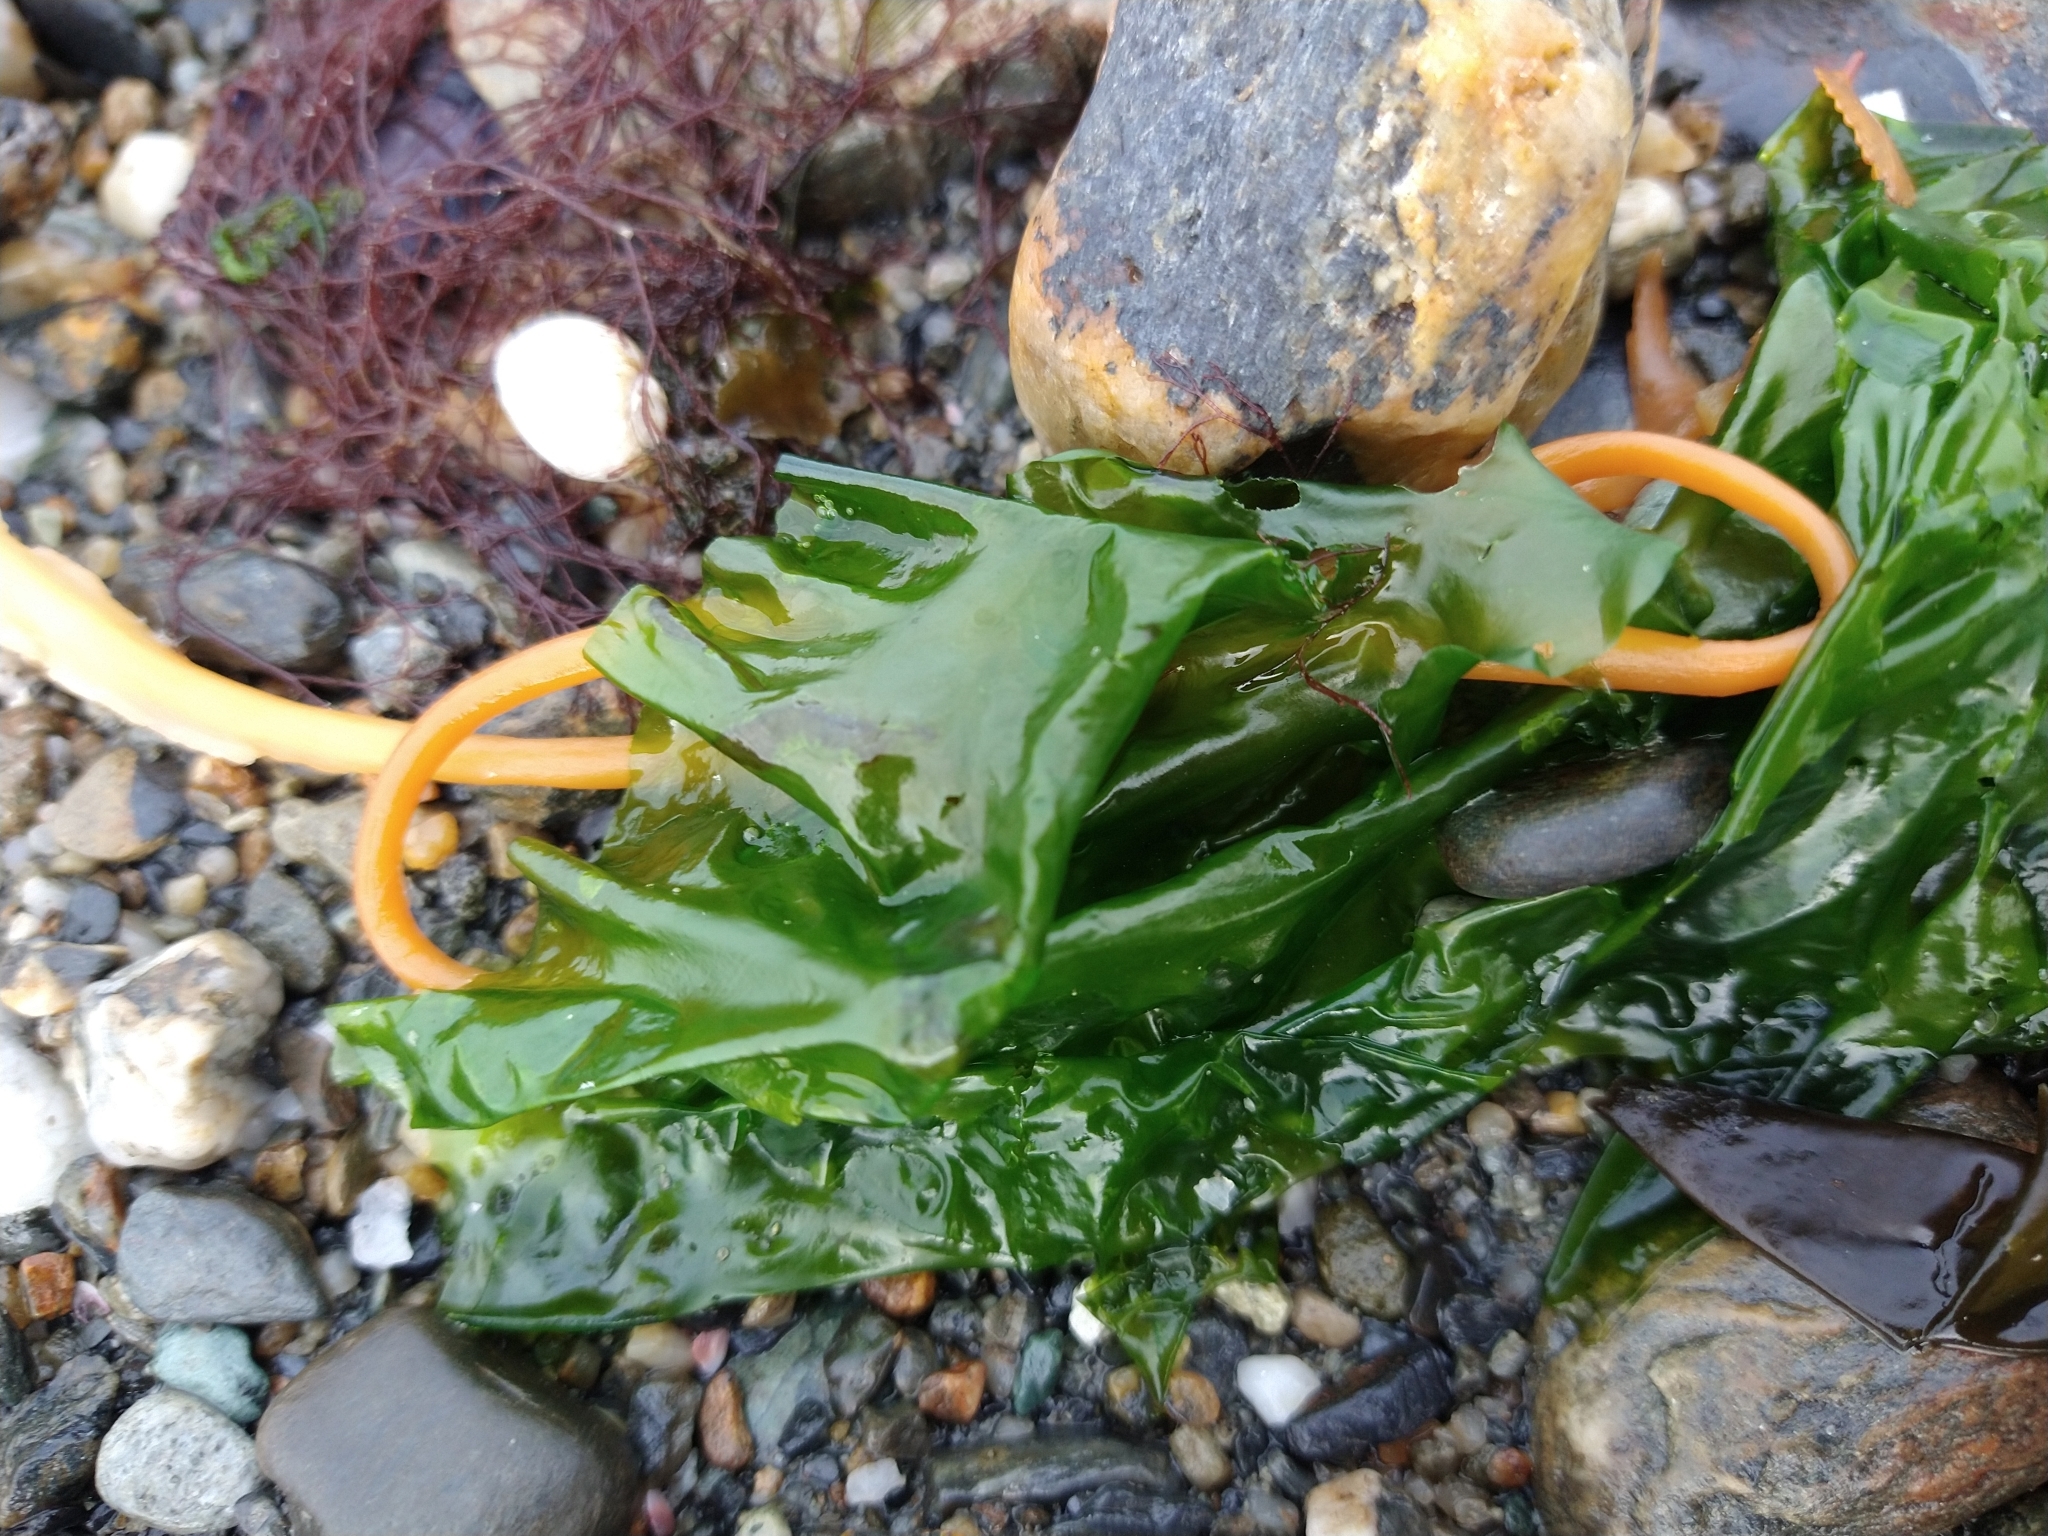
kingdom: Plantae
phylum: Chlorophyta
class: Ulvophyceae
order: Ulvales
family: Ulvaceae
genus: Ulva
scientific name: Ulva lactuca
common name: Sea lettuce
